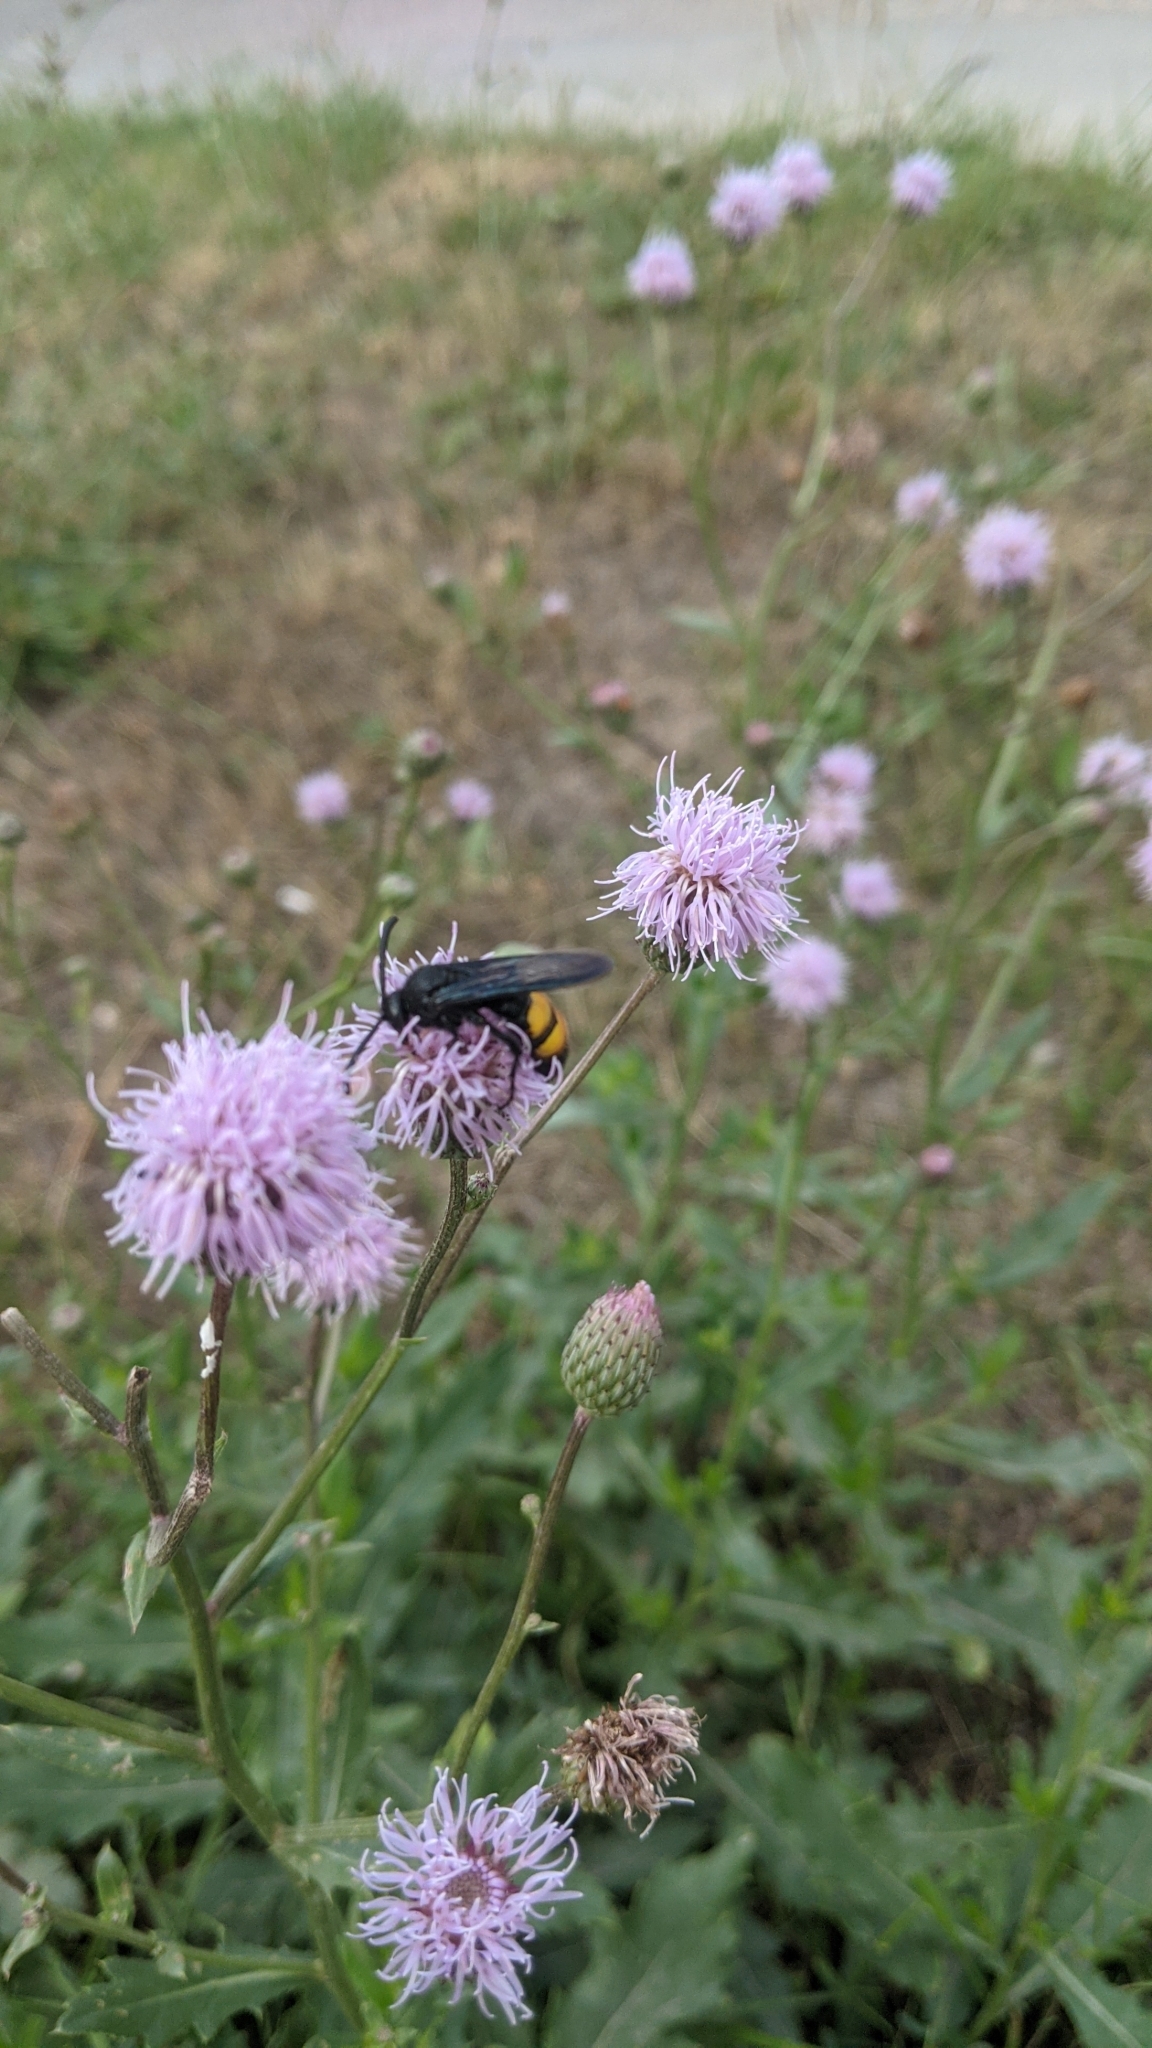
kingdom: Animalia
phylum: Arthropoda
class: Insecta
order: Hymenoptera
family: Scoliidae
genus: Scolia
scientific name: Scolia hirta
